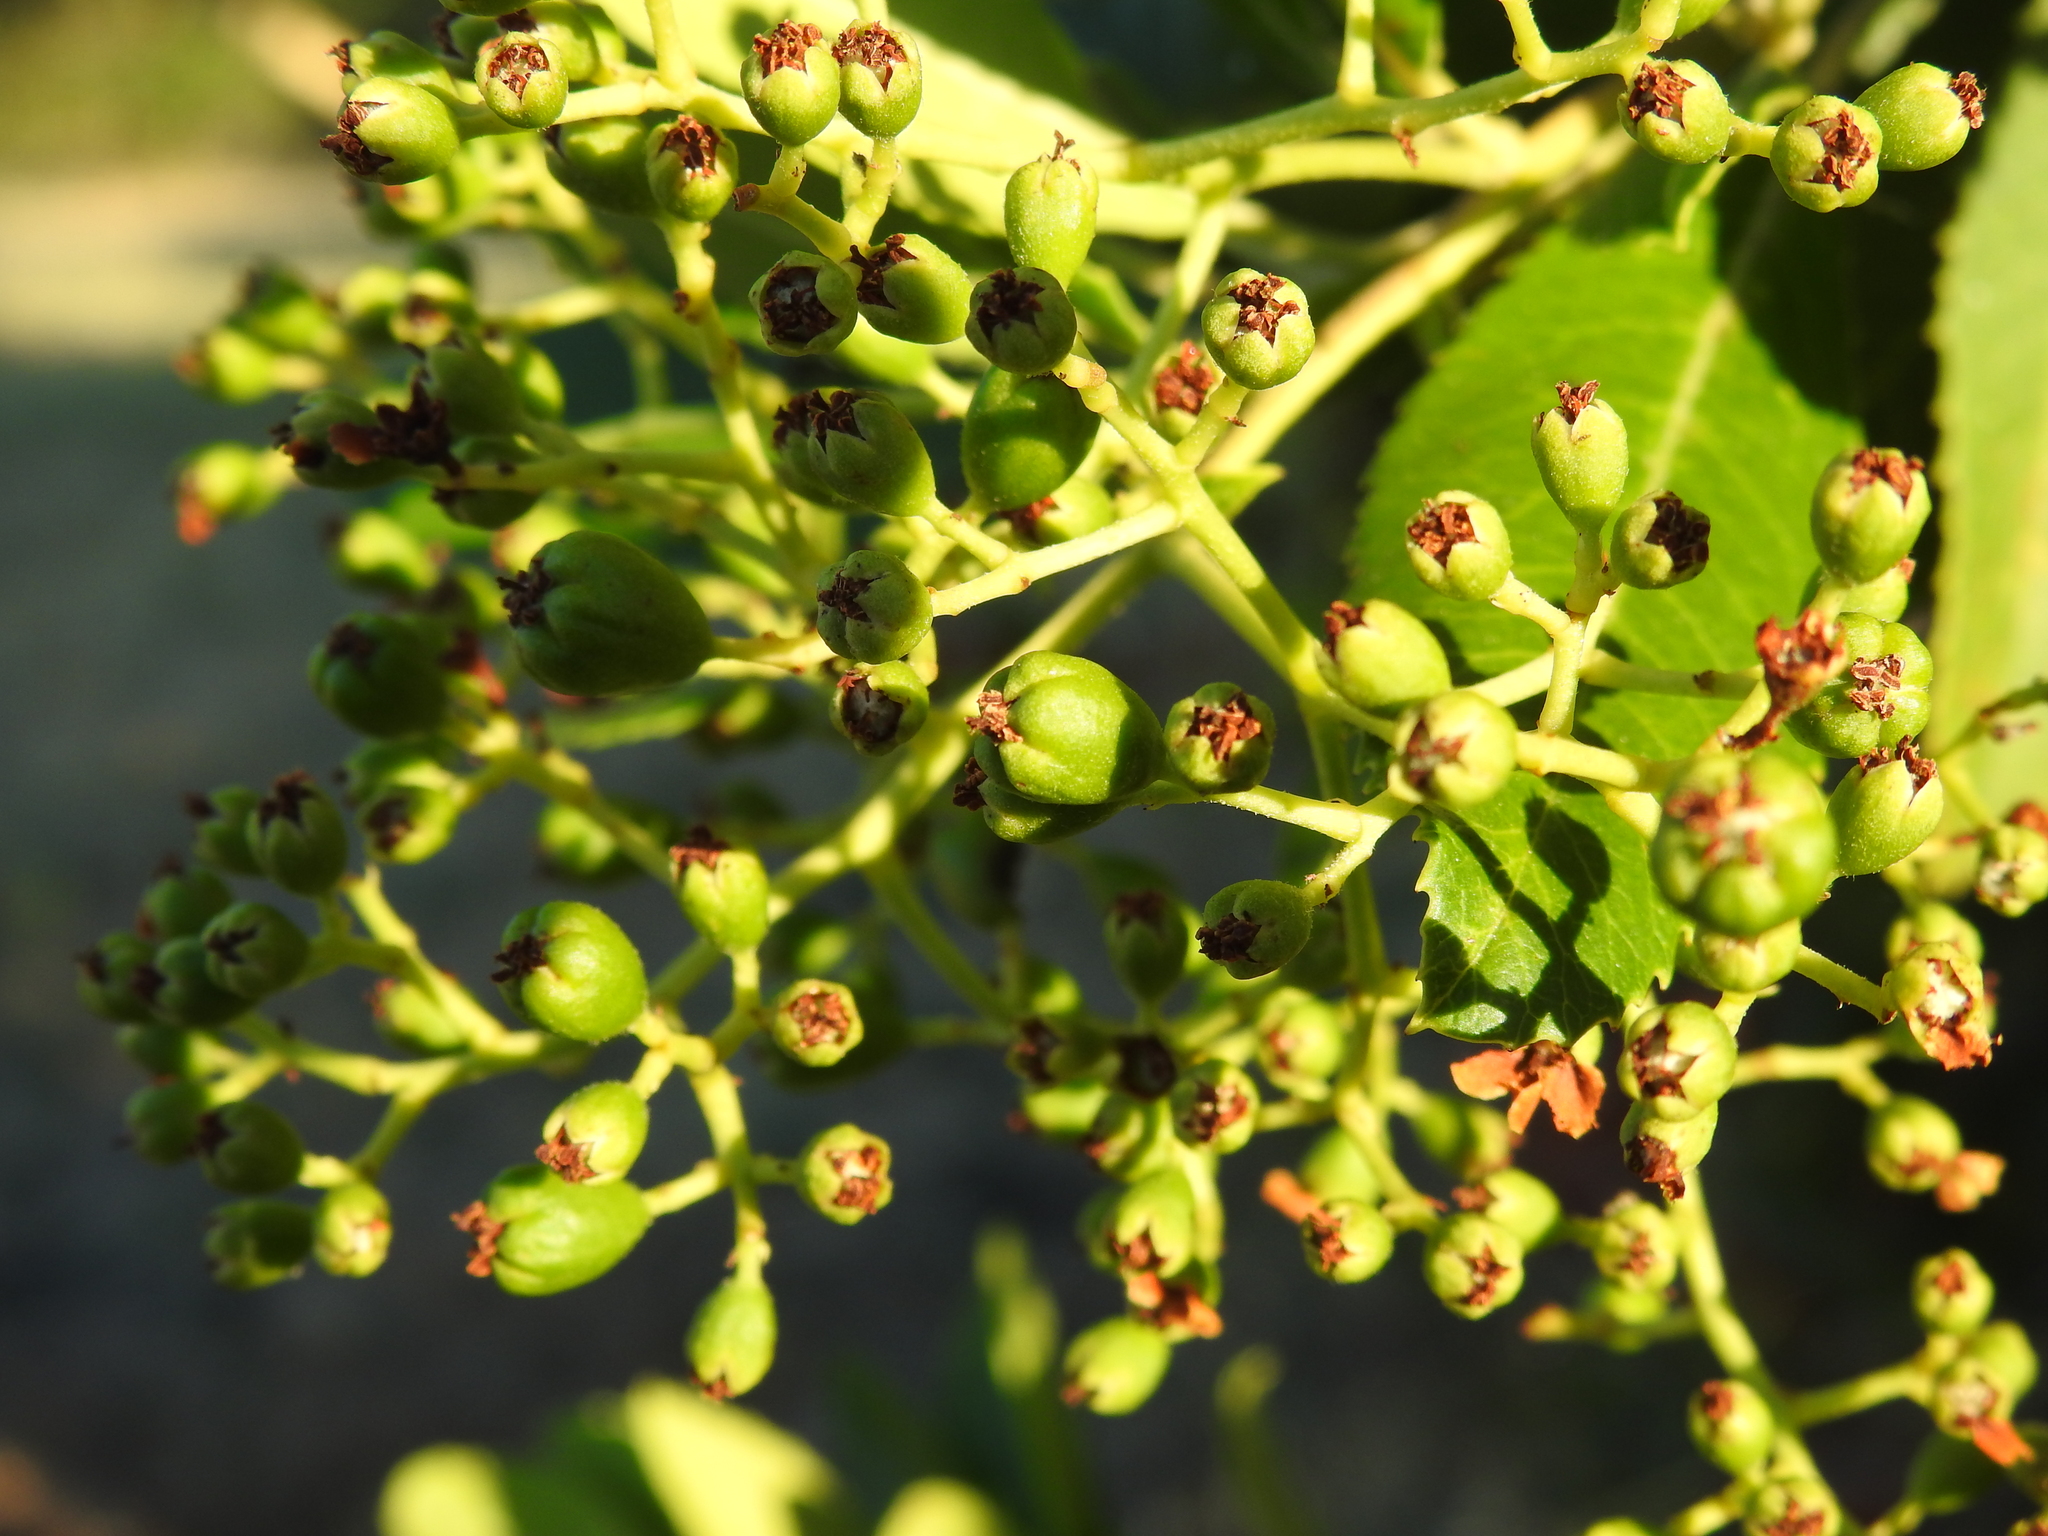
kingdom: Plantae
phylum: Tracheophyta
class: Magnoliopsida
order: Rosales
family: Rosaceae
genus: Heteromeles
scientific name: Heteromeles arbutifolia
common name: California-holly
